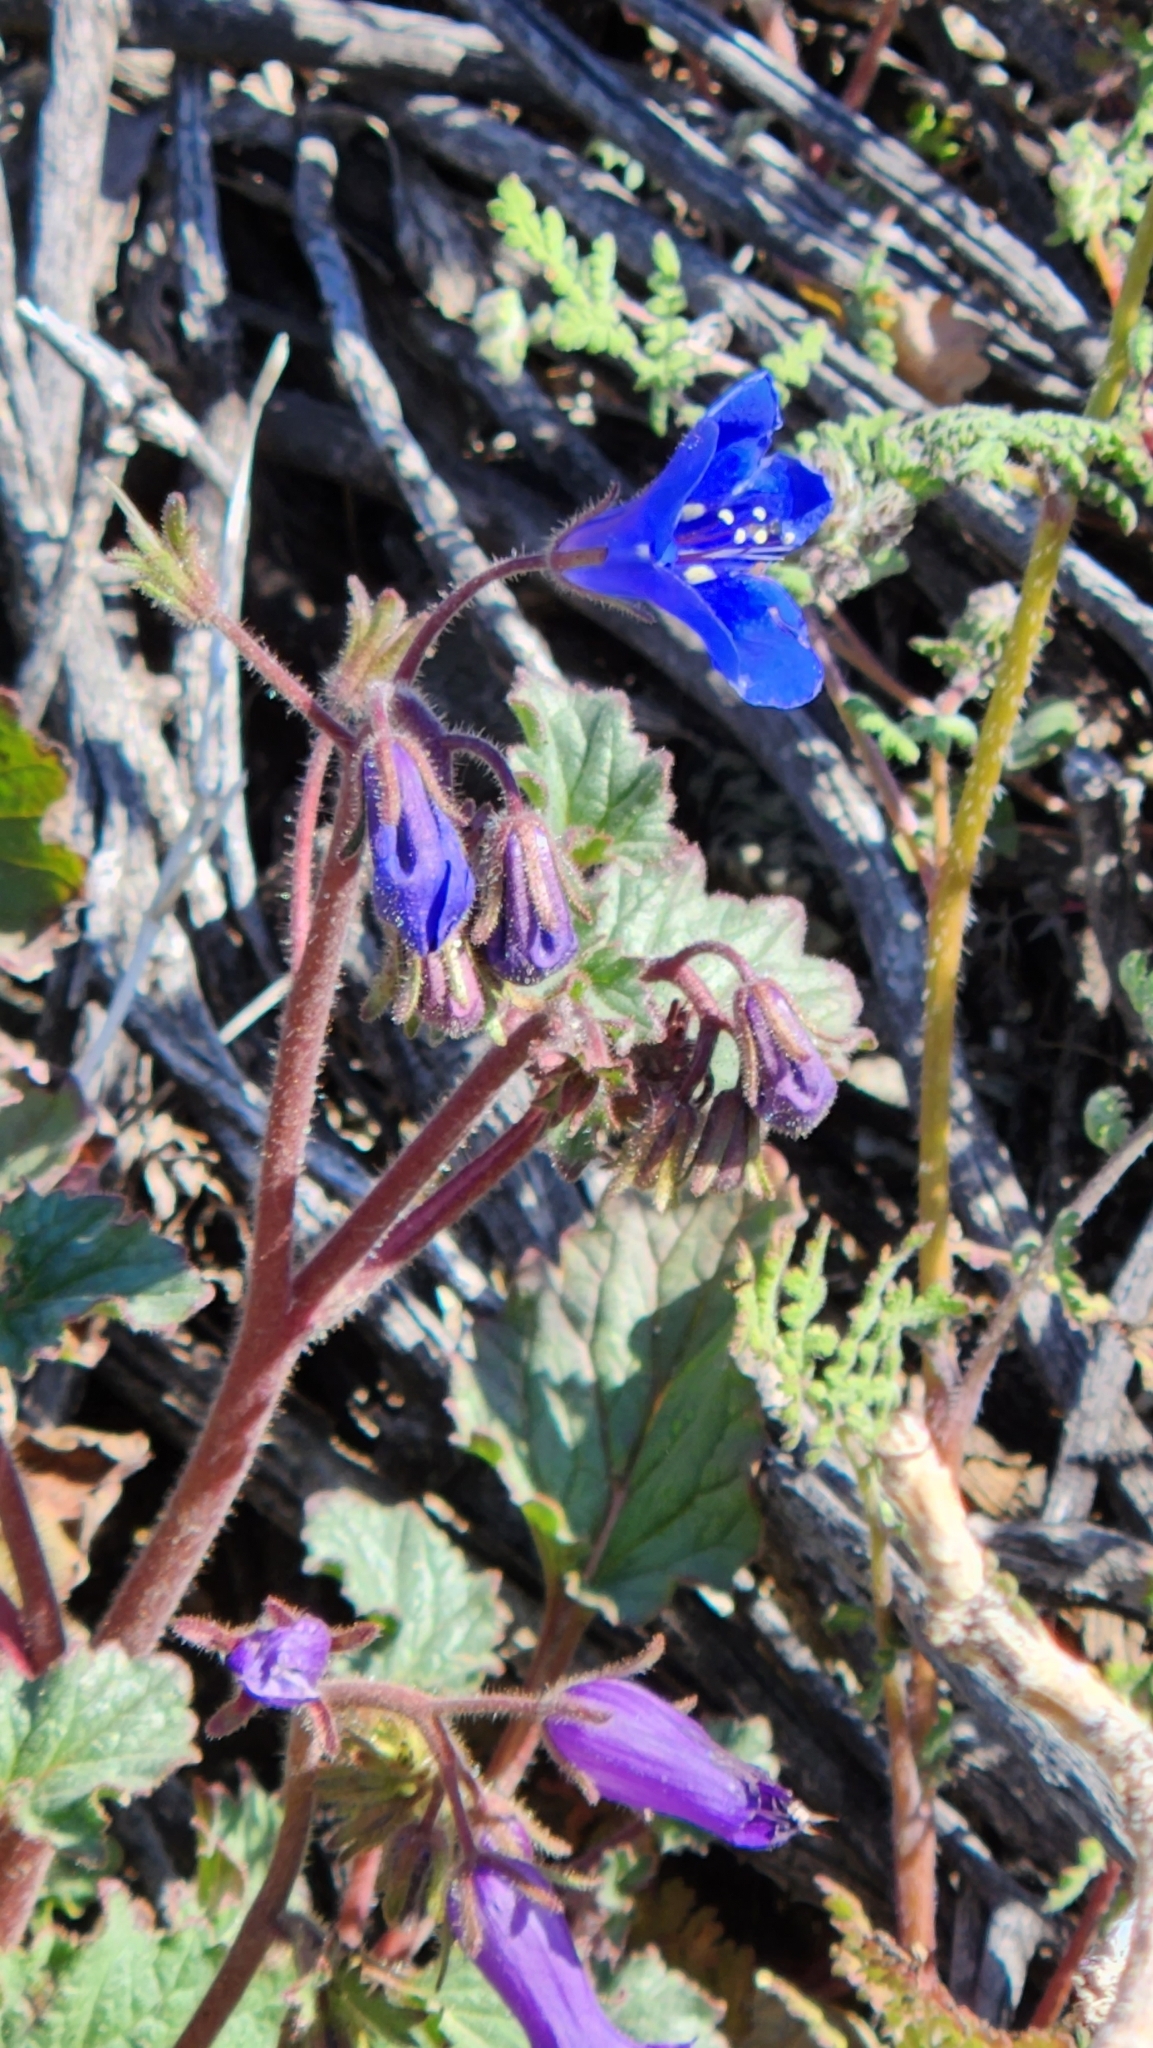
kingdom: Plantae
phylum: Tracheophyta
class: Magnoliopsida
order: Boraginales
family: Hydrophyllaceae
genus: Phacelia
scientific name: Phacelia campanularia
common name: California bluebell
